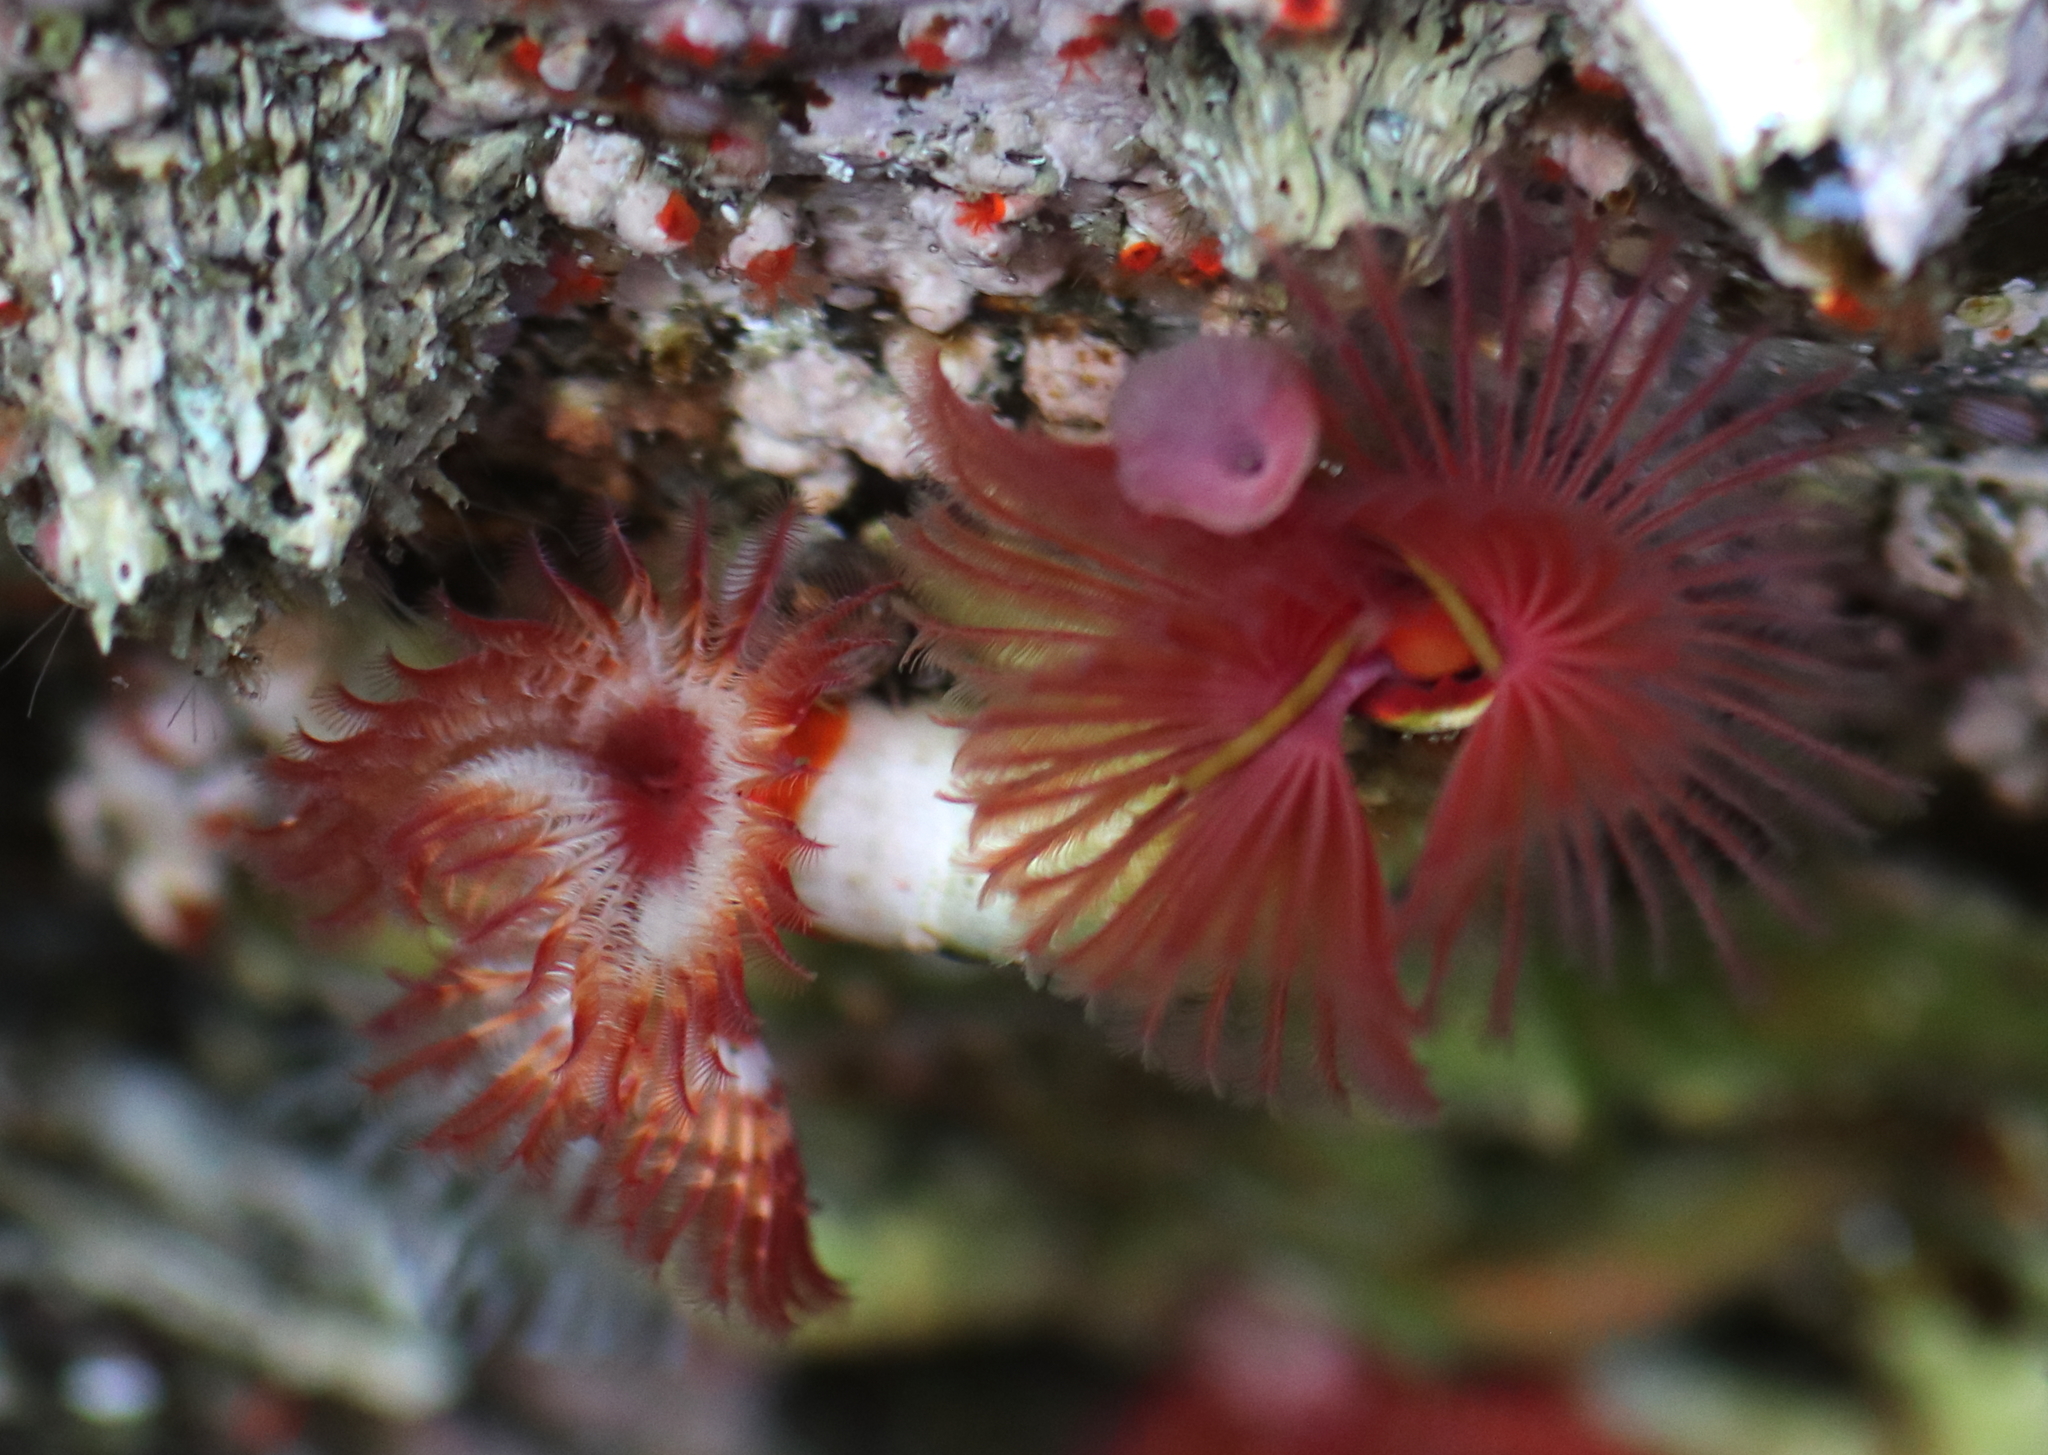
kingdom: Animalia
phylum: Annelida
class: Polychaeta
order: Sabellida
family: Serpulidae
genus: Serpula
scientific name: Serpula columbiana
